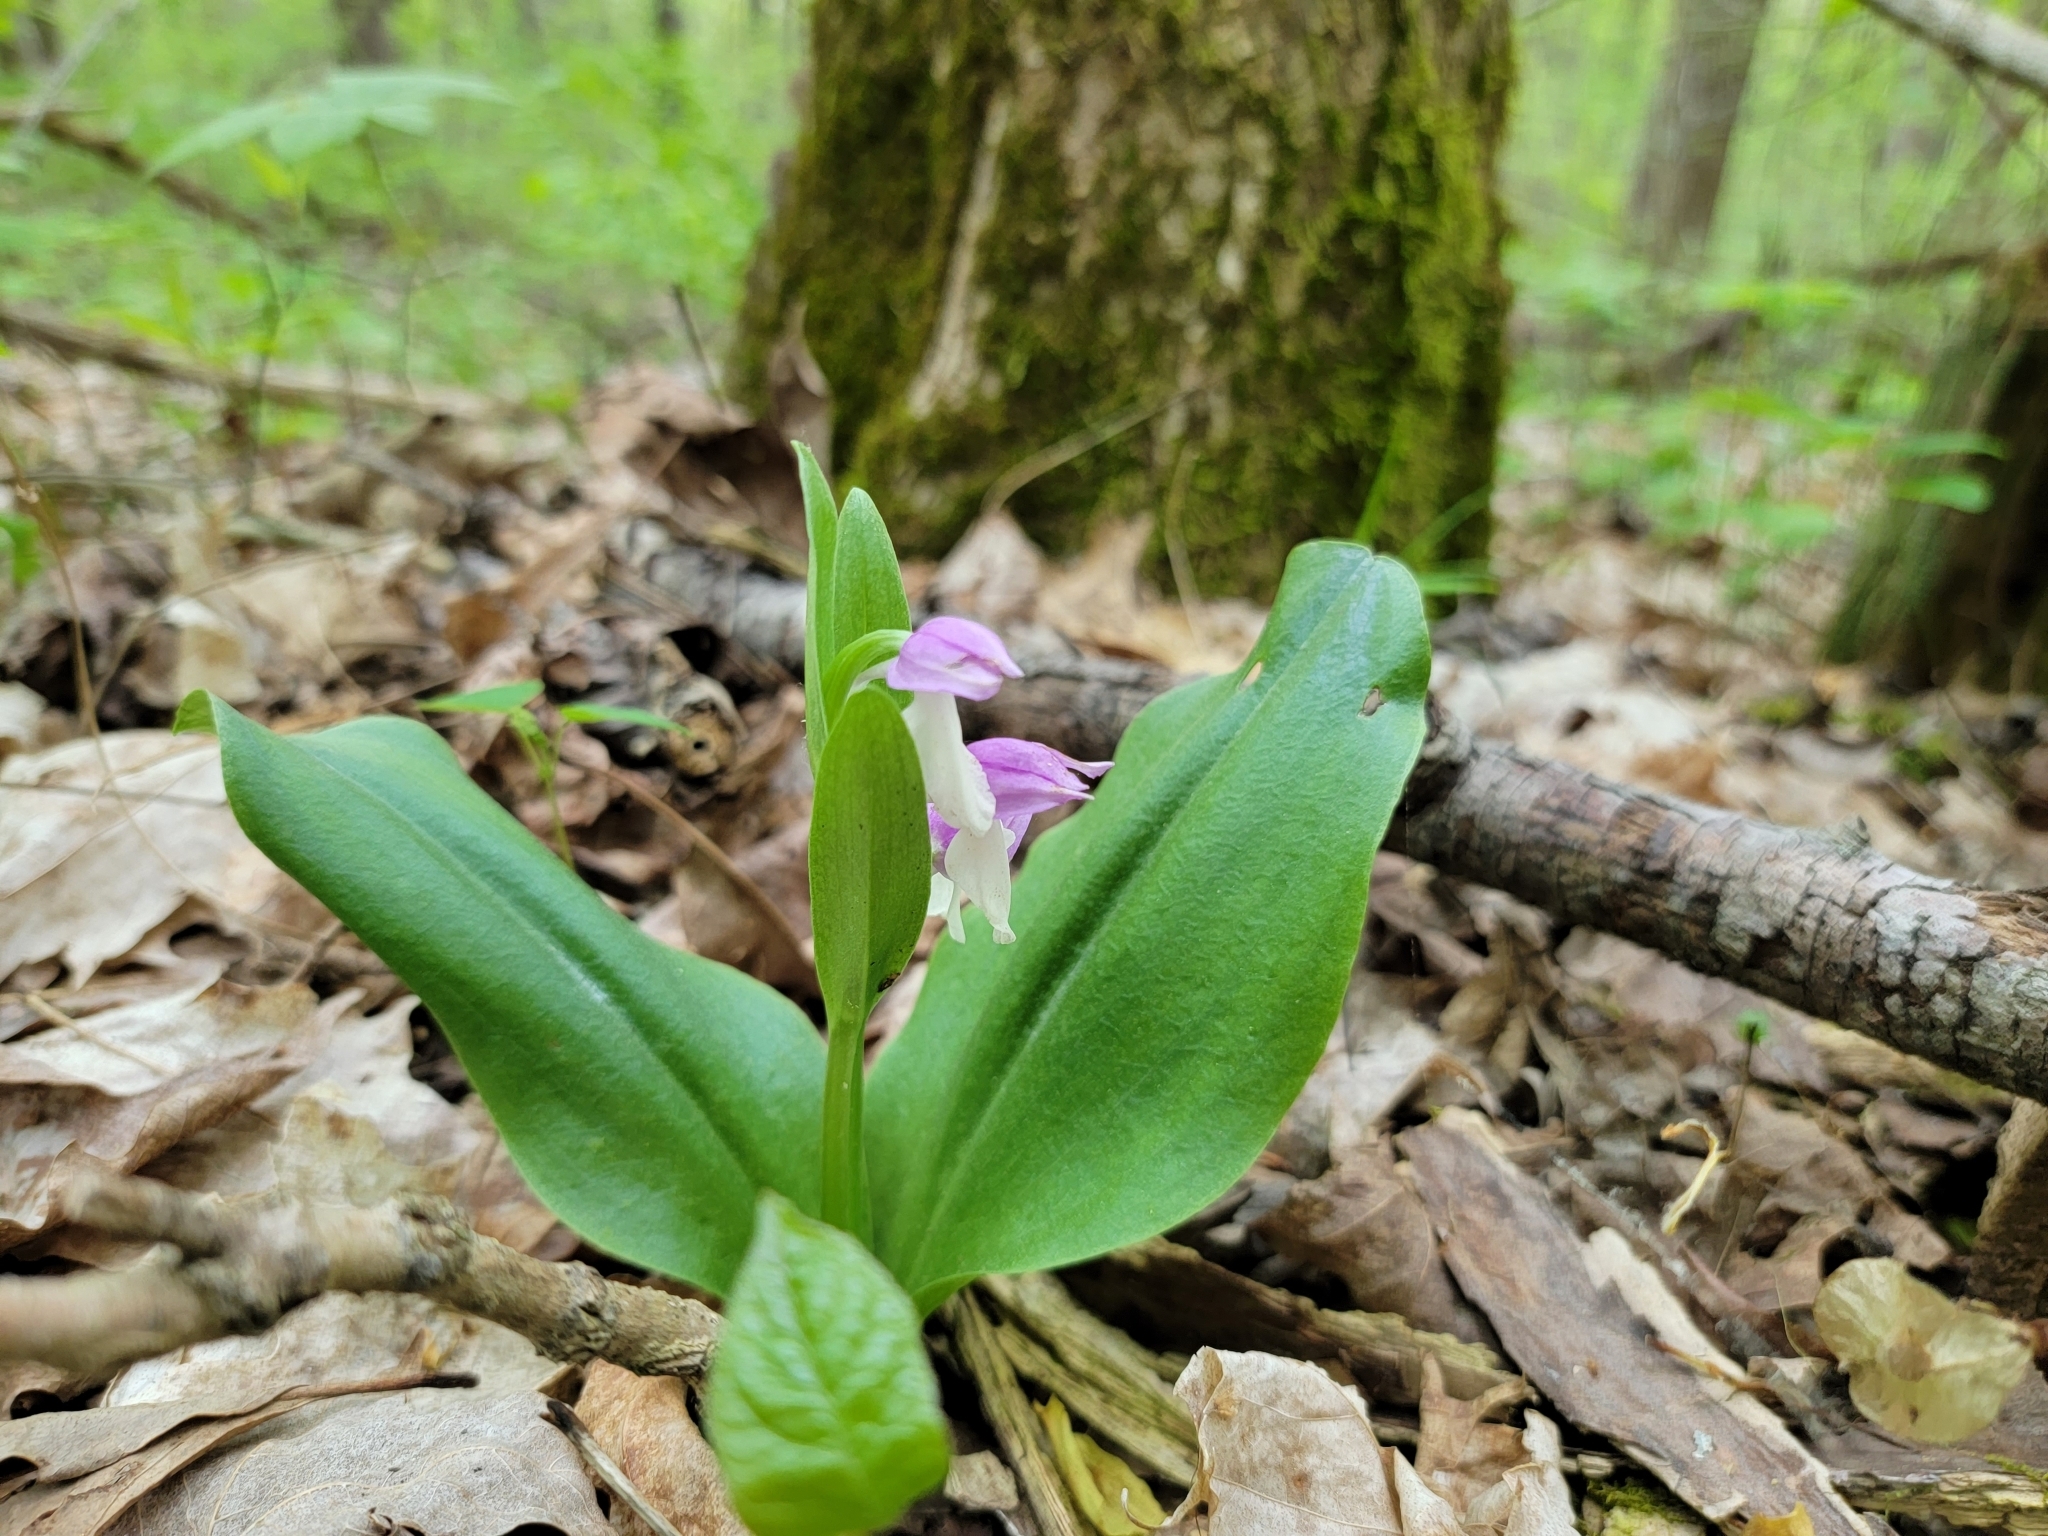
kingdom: Plantae
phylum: Tracheophyta
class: Liliopsida
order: Asparagales
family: Orchidaceae
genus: Galearis
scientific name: Galearis spectabilis
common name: Purple-hooded orchis
